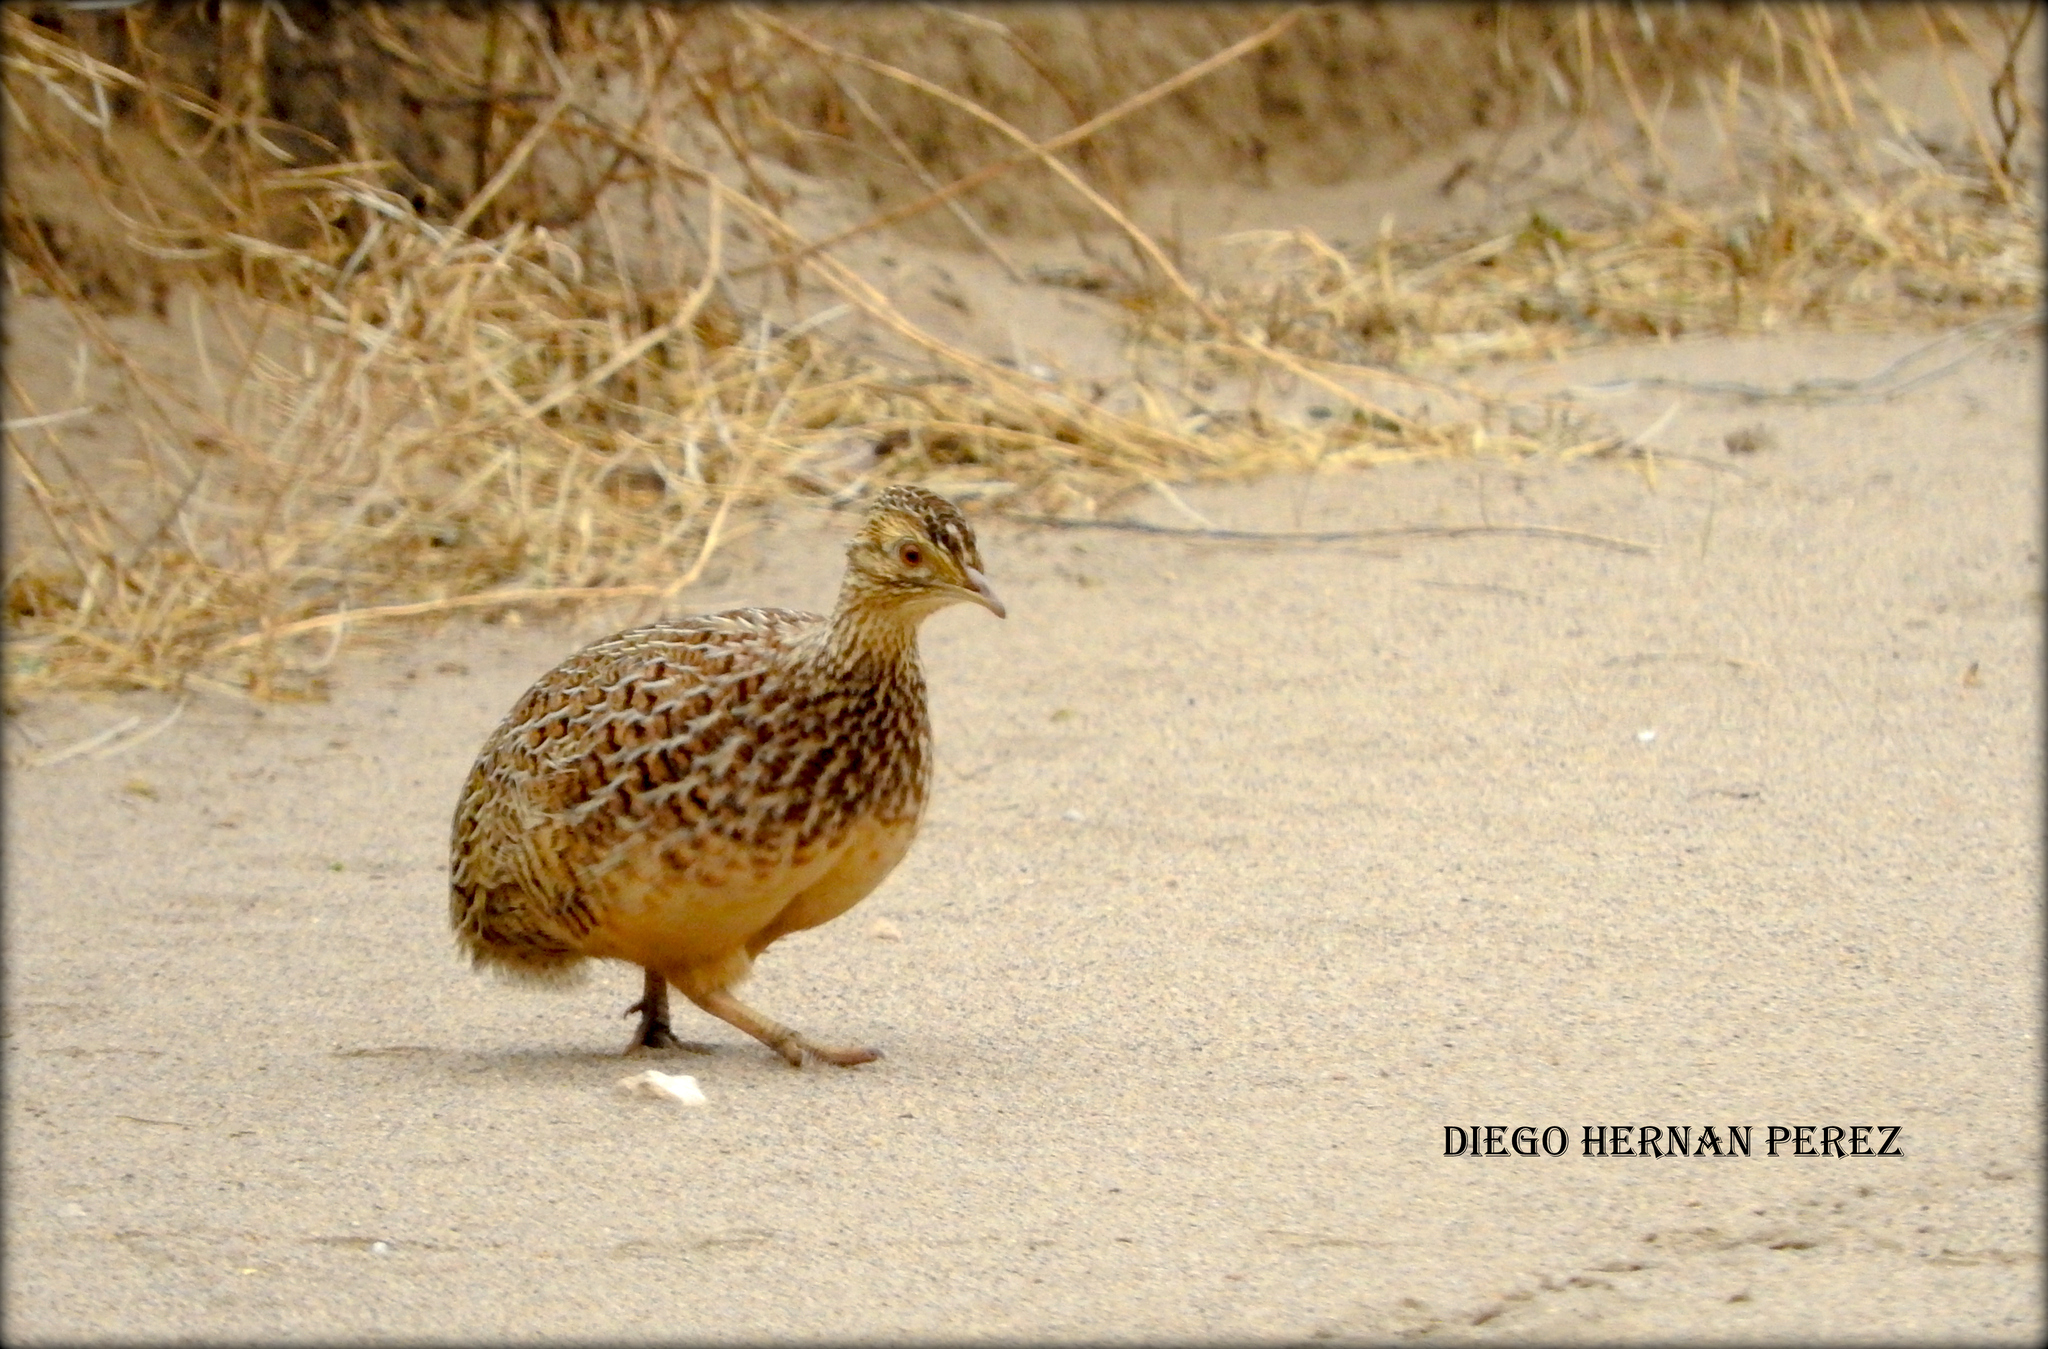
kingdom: Animalia
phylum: Chordata
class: Aves
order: Tinamiformes
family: Tinamidae
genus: Nothura
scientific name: Nothura darwinii
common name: Darwin's nothura
